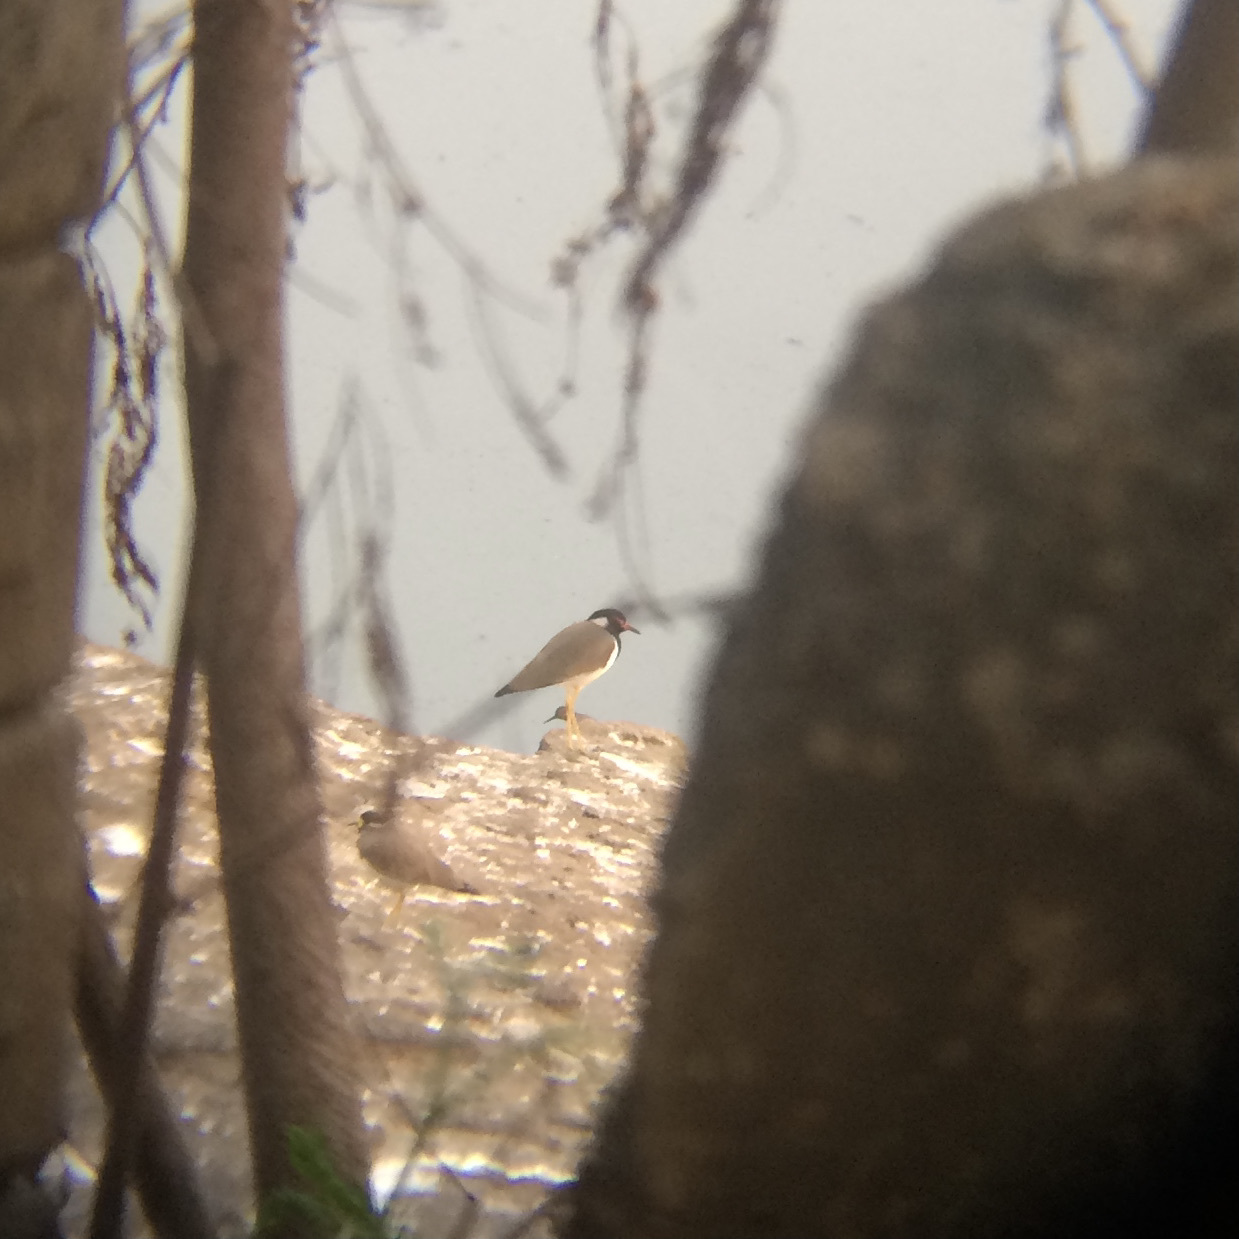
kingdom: Animalia
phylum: Chordata
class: Aves
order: Charadriiformes
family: Charadriidae
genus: Vanellus
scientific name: Vanellus indicus
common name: Red-wattled lapwing
